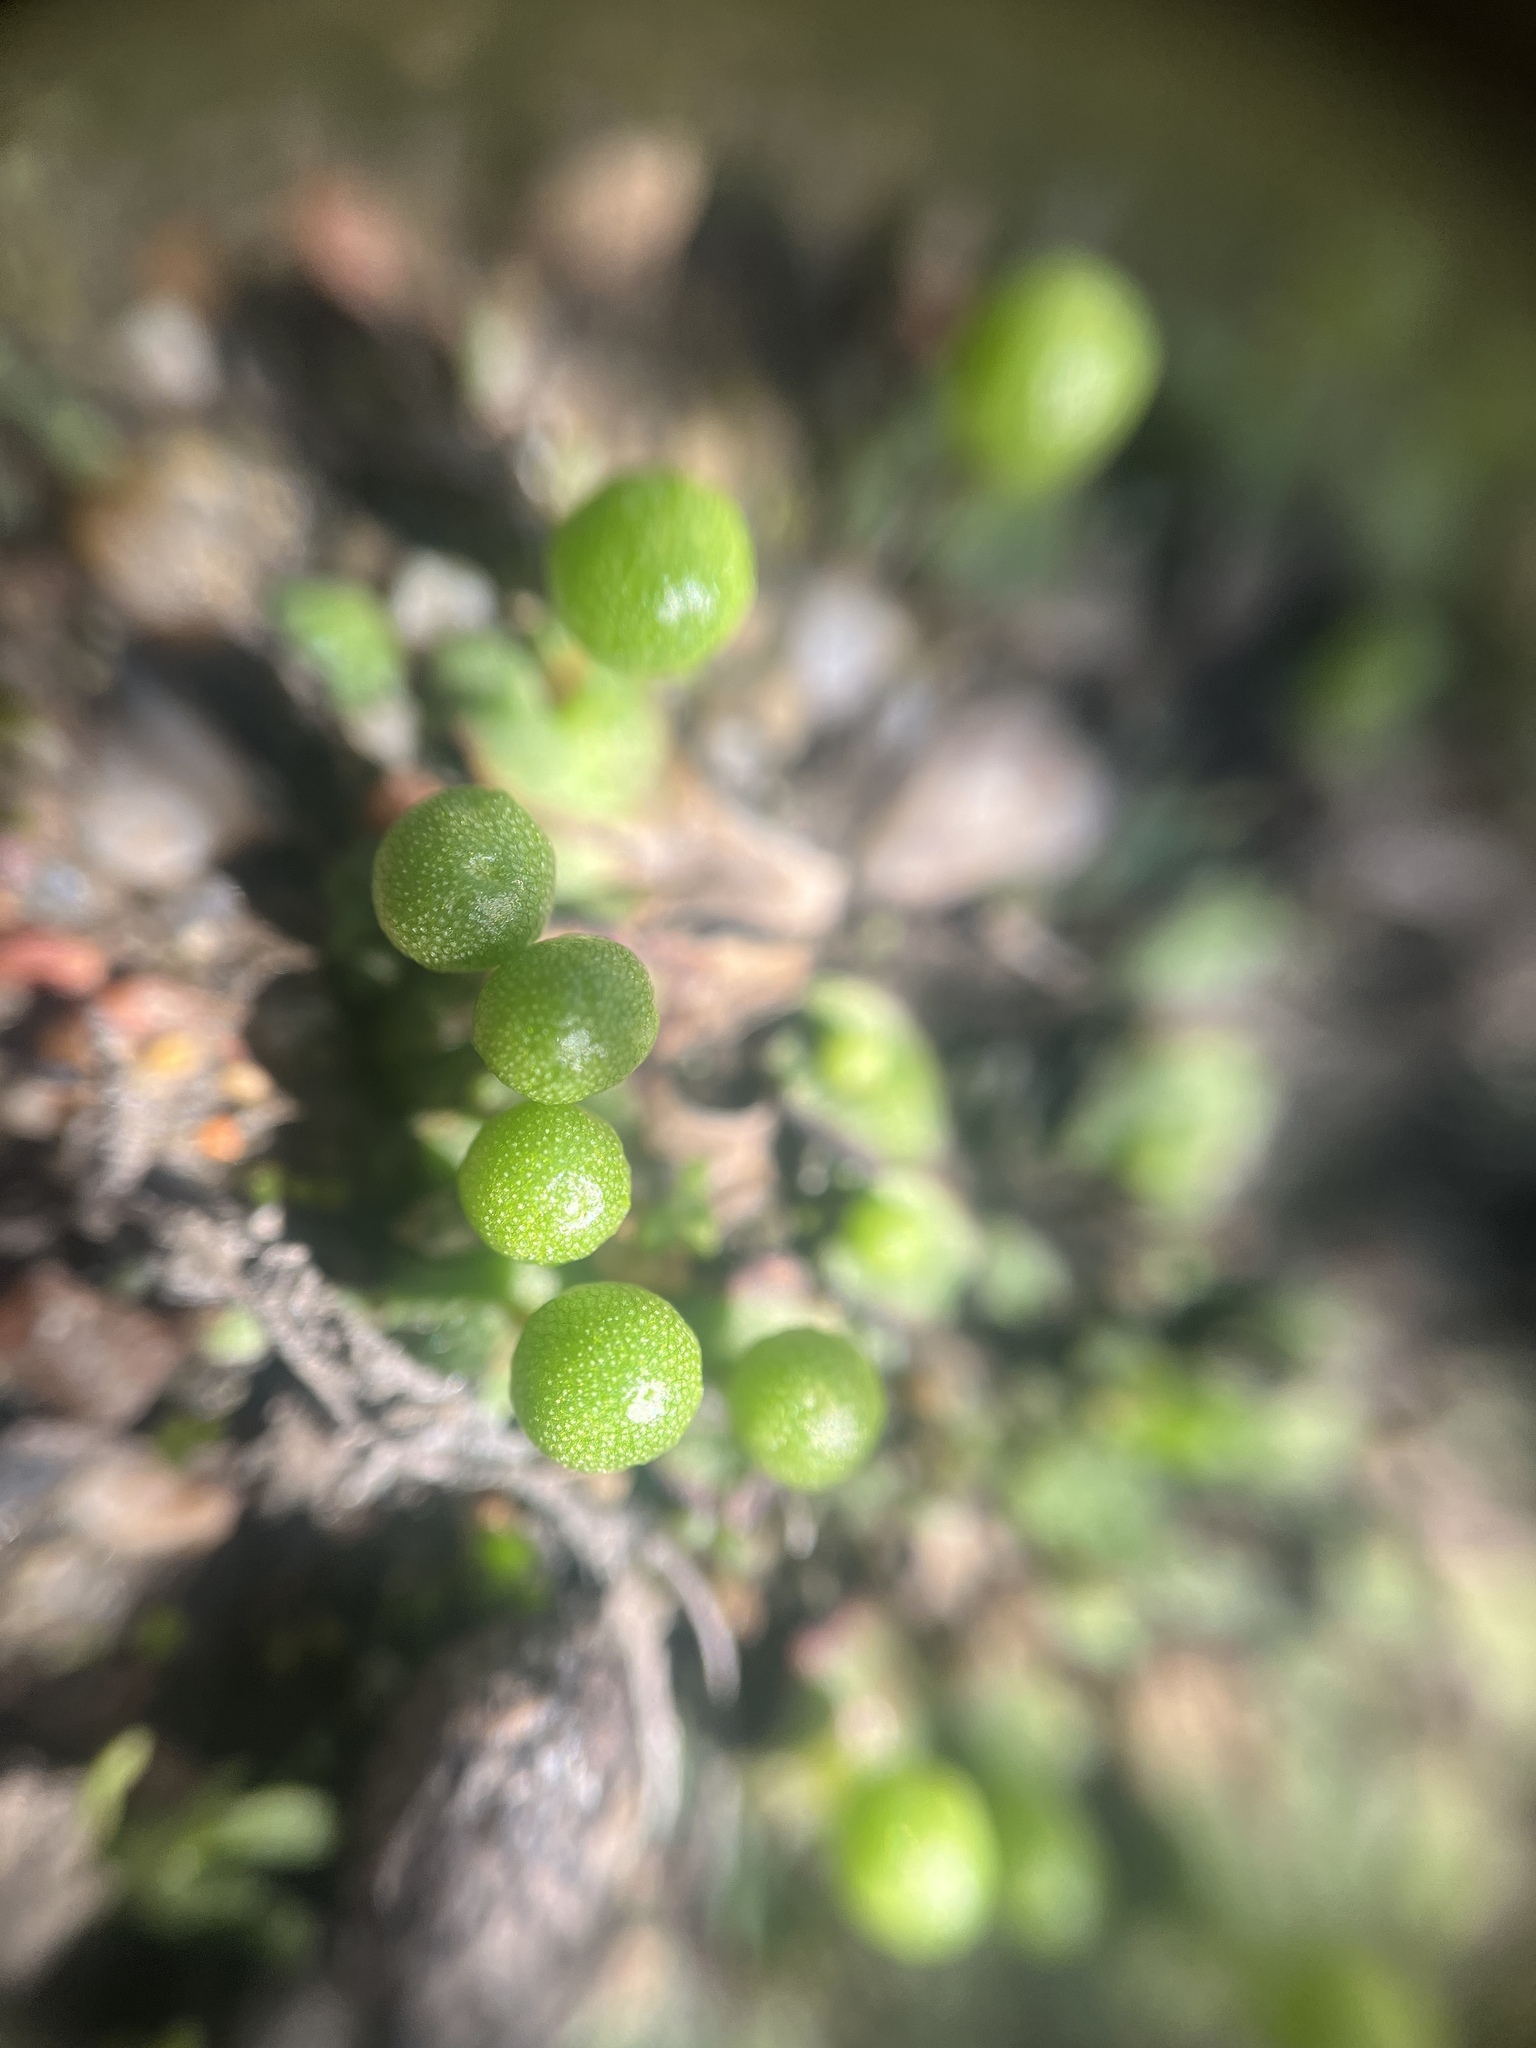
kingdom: Plantae
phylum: Marchantiophyta
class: Marchantiopsida
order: Marchantiales
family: Aytoniaceae
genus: Asterella
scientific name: Asterella palmeri
